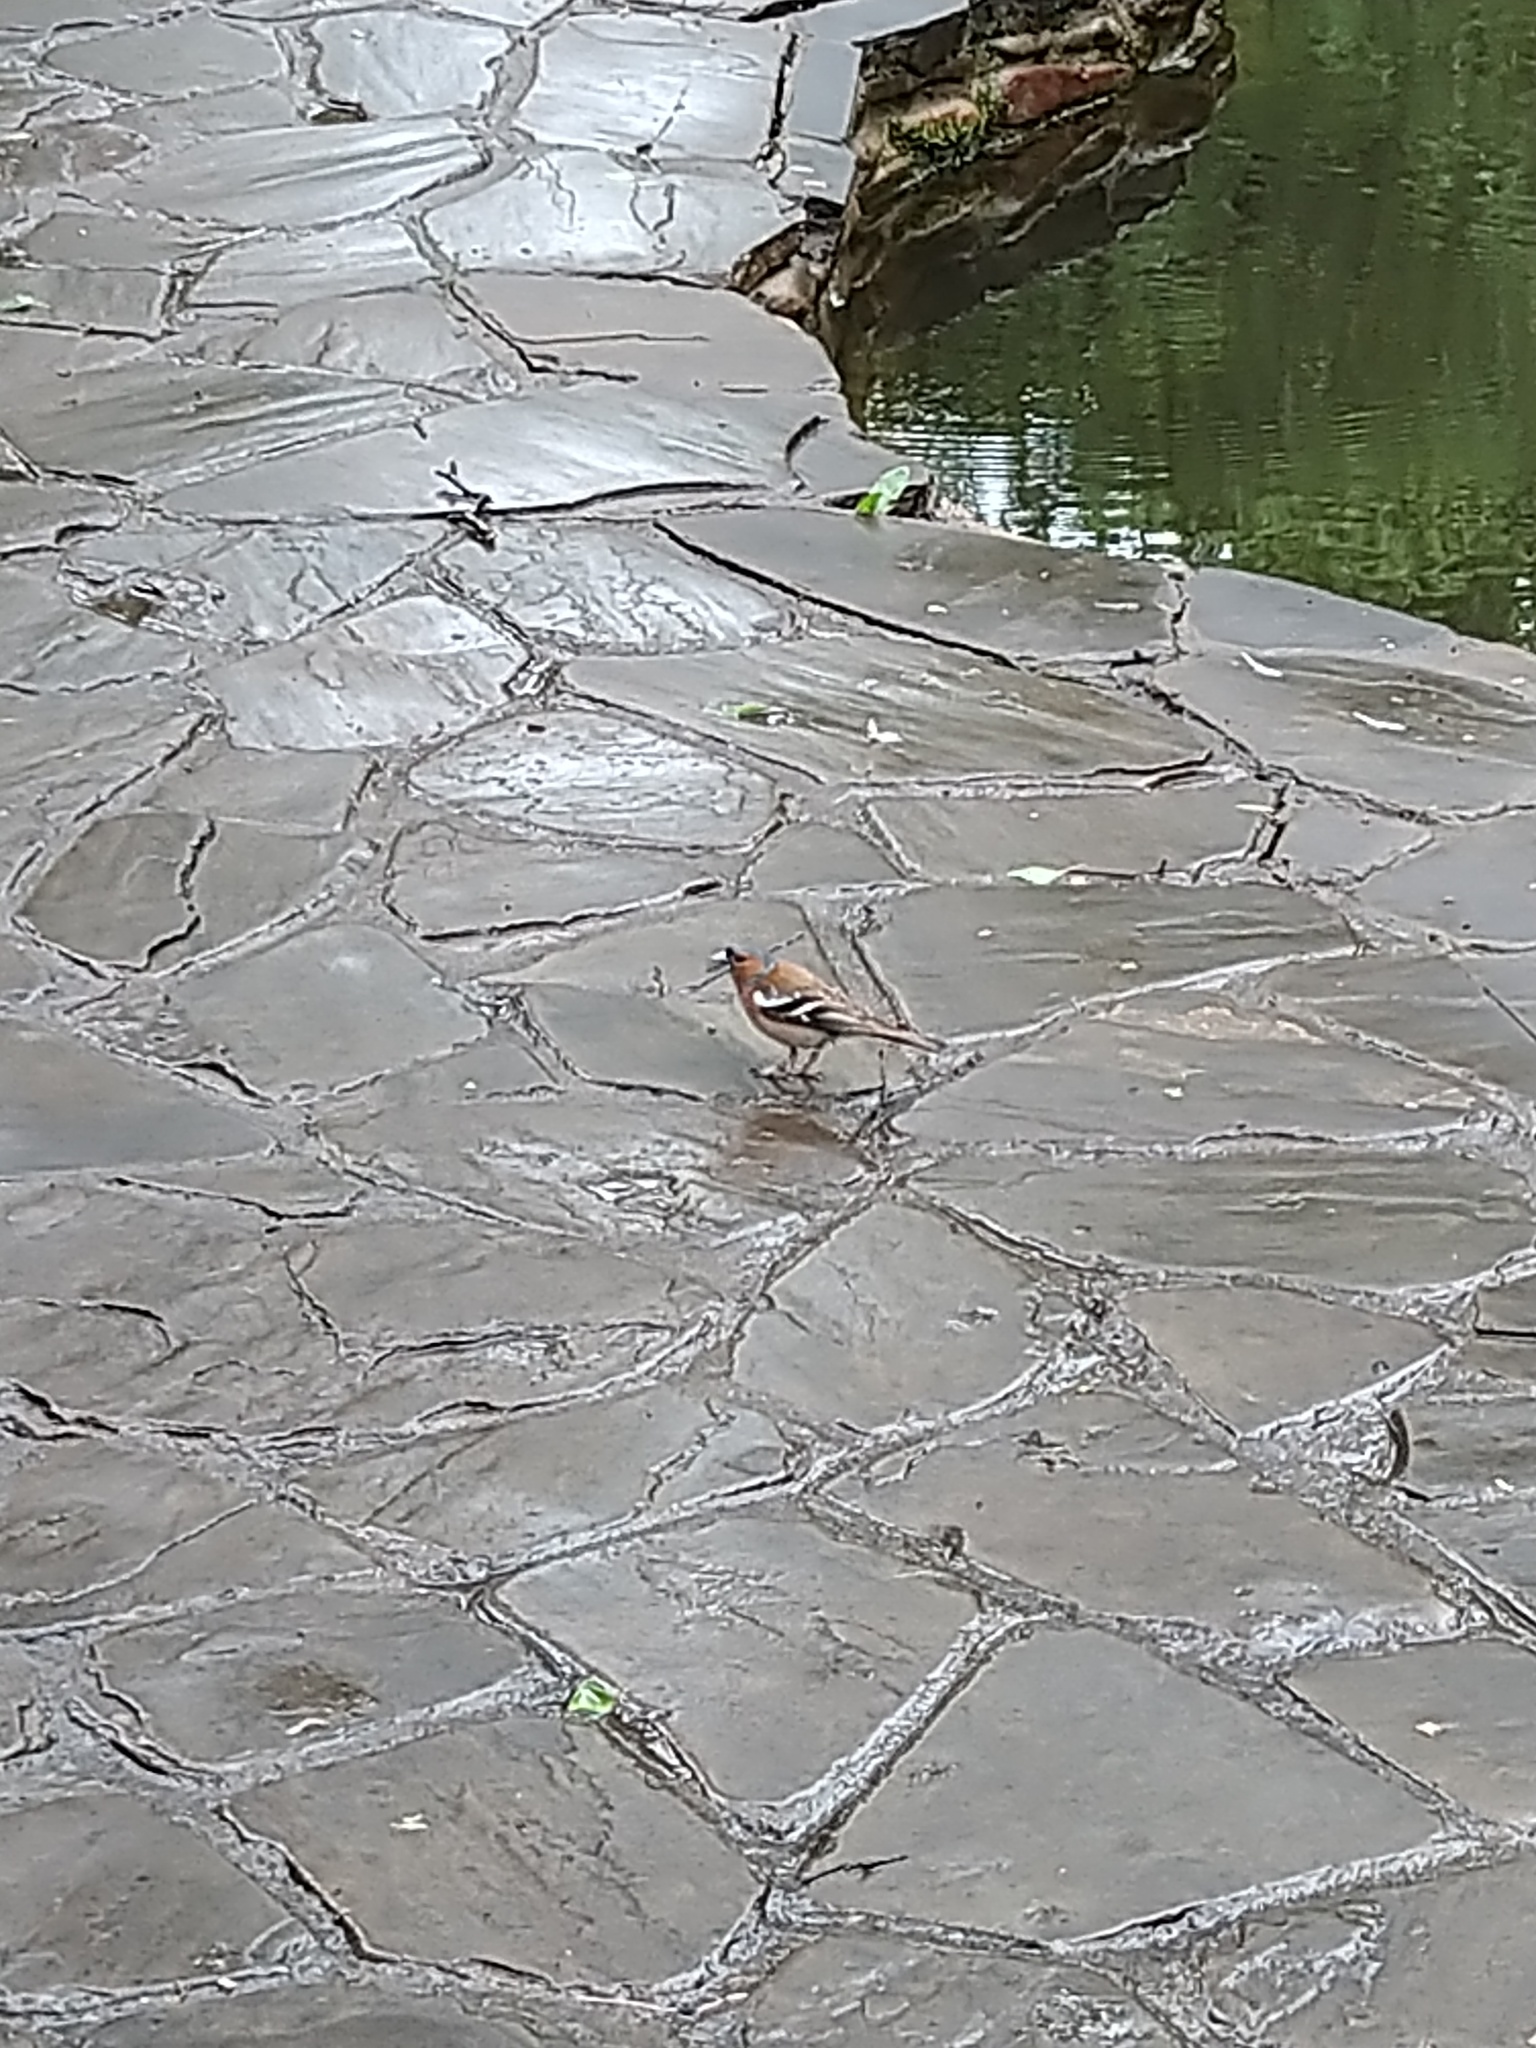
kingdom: Animalia
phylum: Chordata
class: Aves
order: Passeriformes
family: Fringillidae
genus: Fringilla
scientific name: Fringilla coelebs
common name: Common chaffinch
